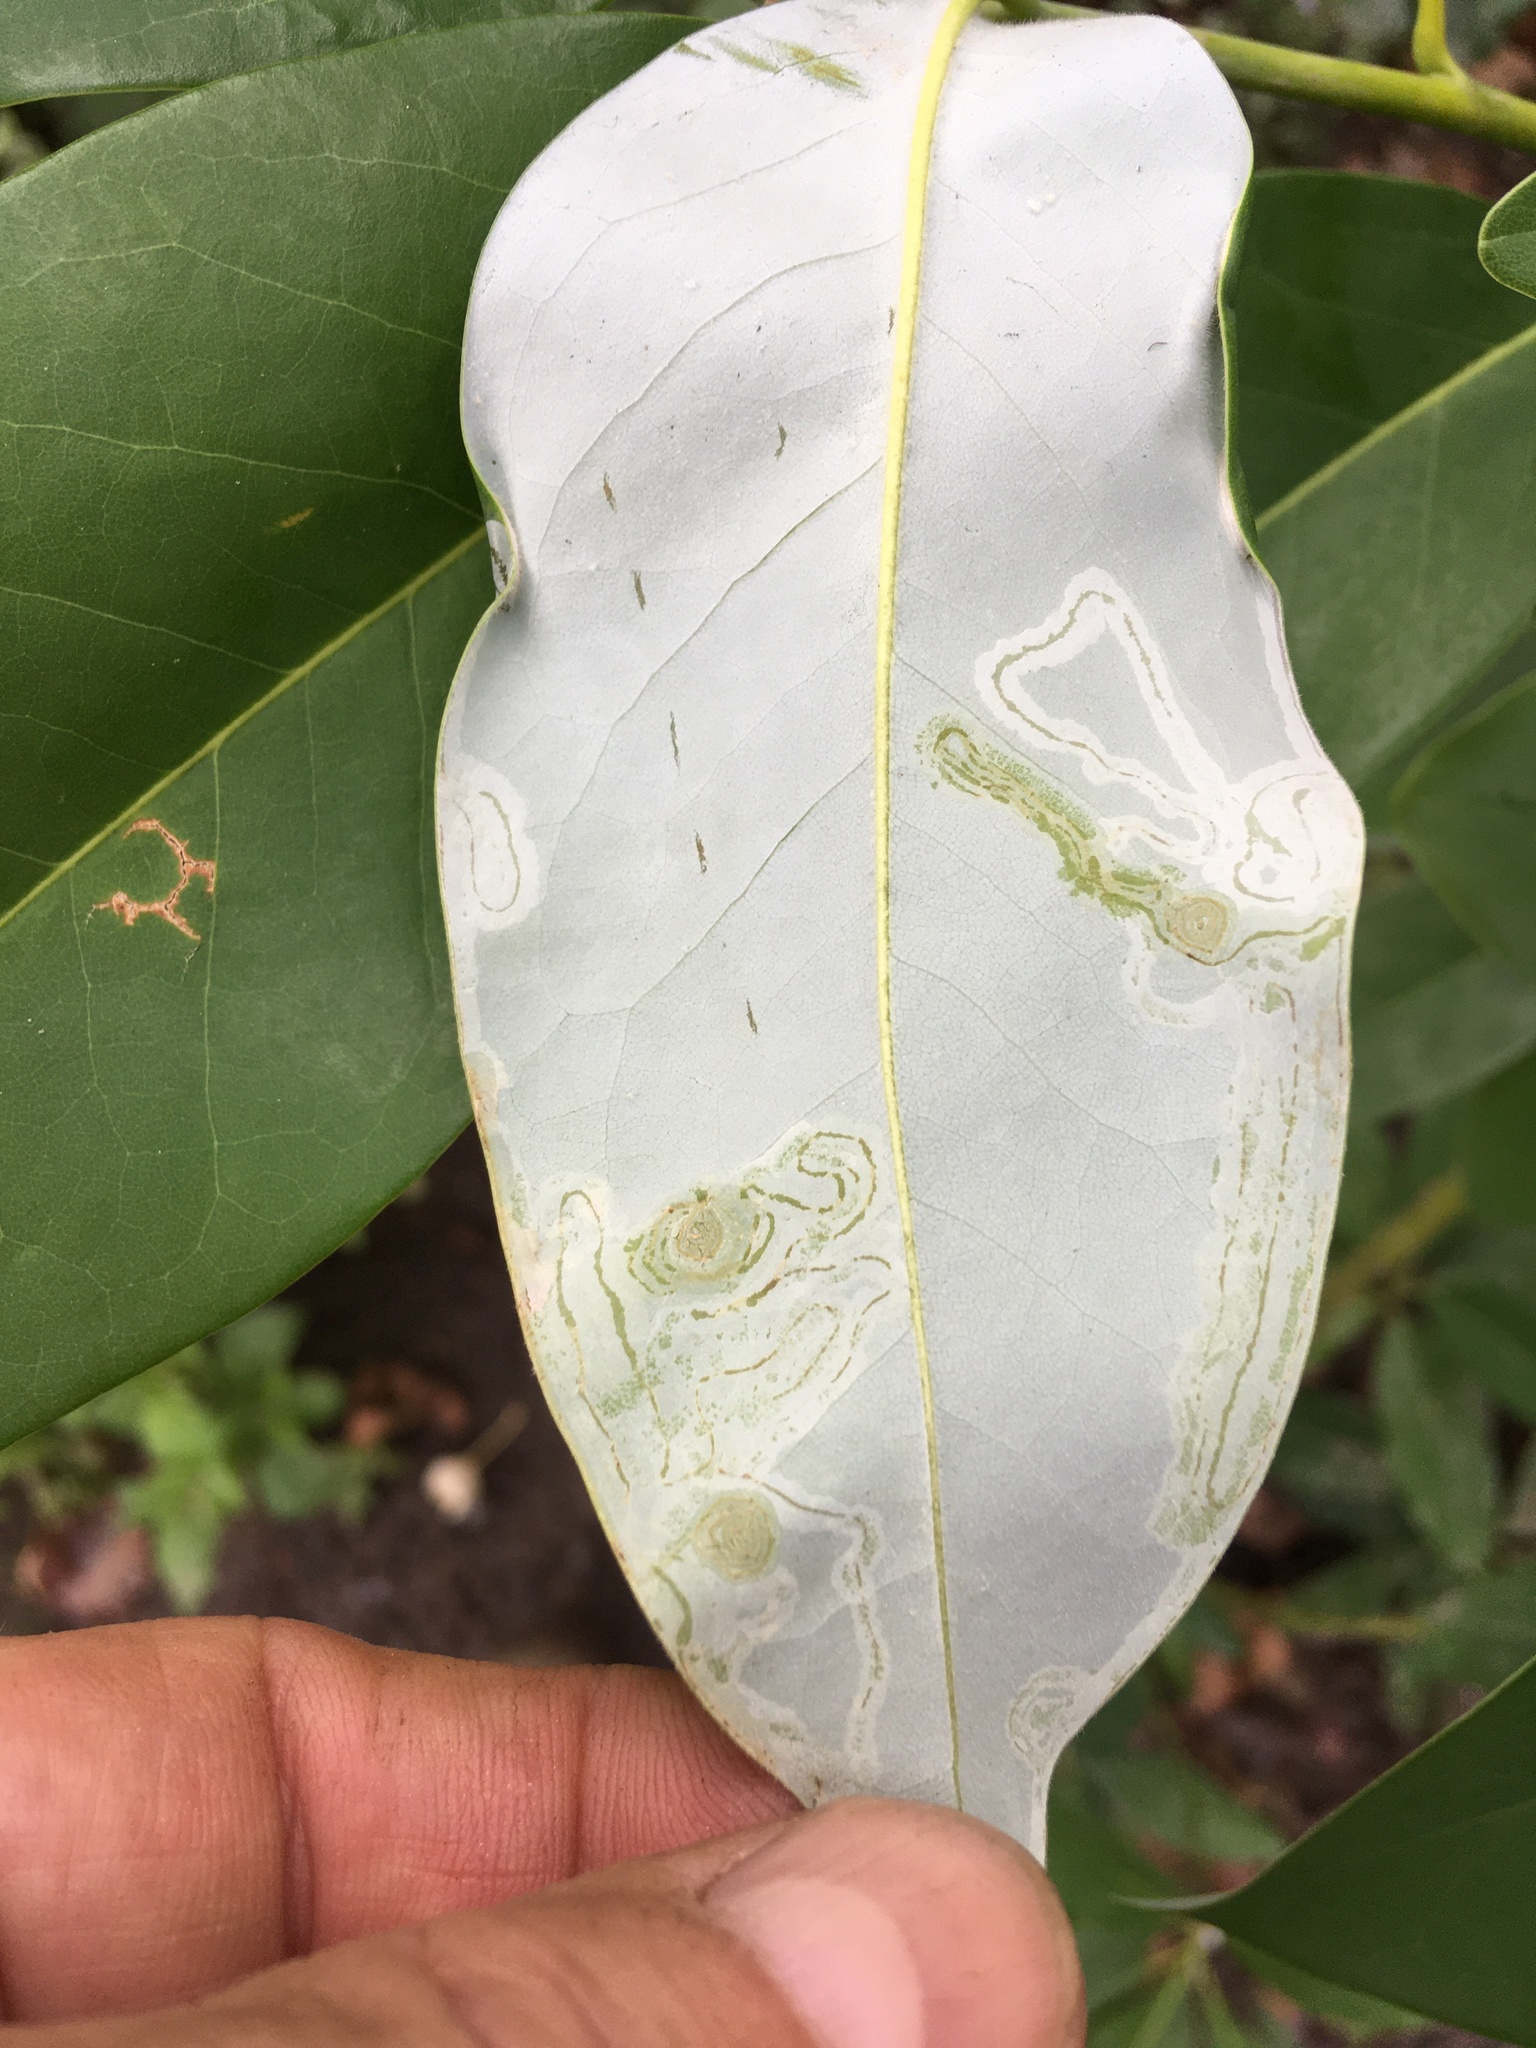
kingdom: Animalia
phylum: Arthropoda
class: Insecta
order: Lepidoptera
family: Gracillariidae
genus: Phyllocnistis
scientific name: Phyllocnistis liriodendronella
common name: Tulip tree leaf miner
